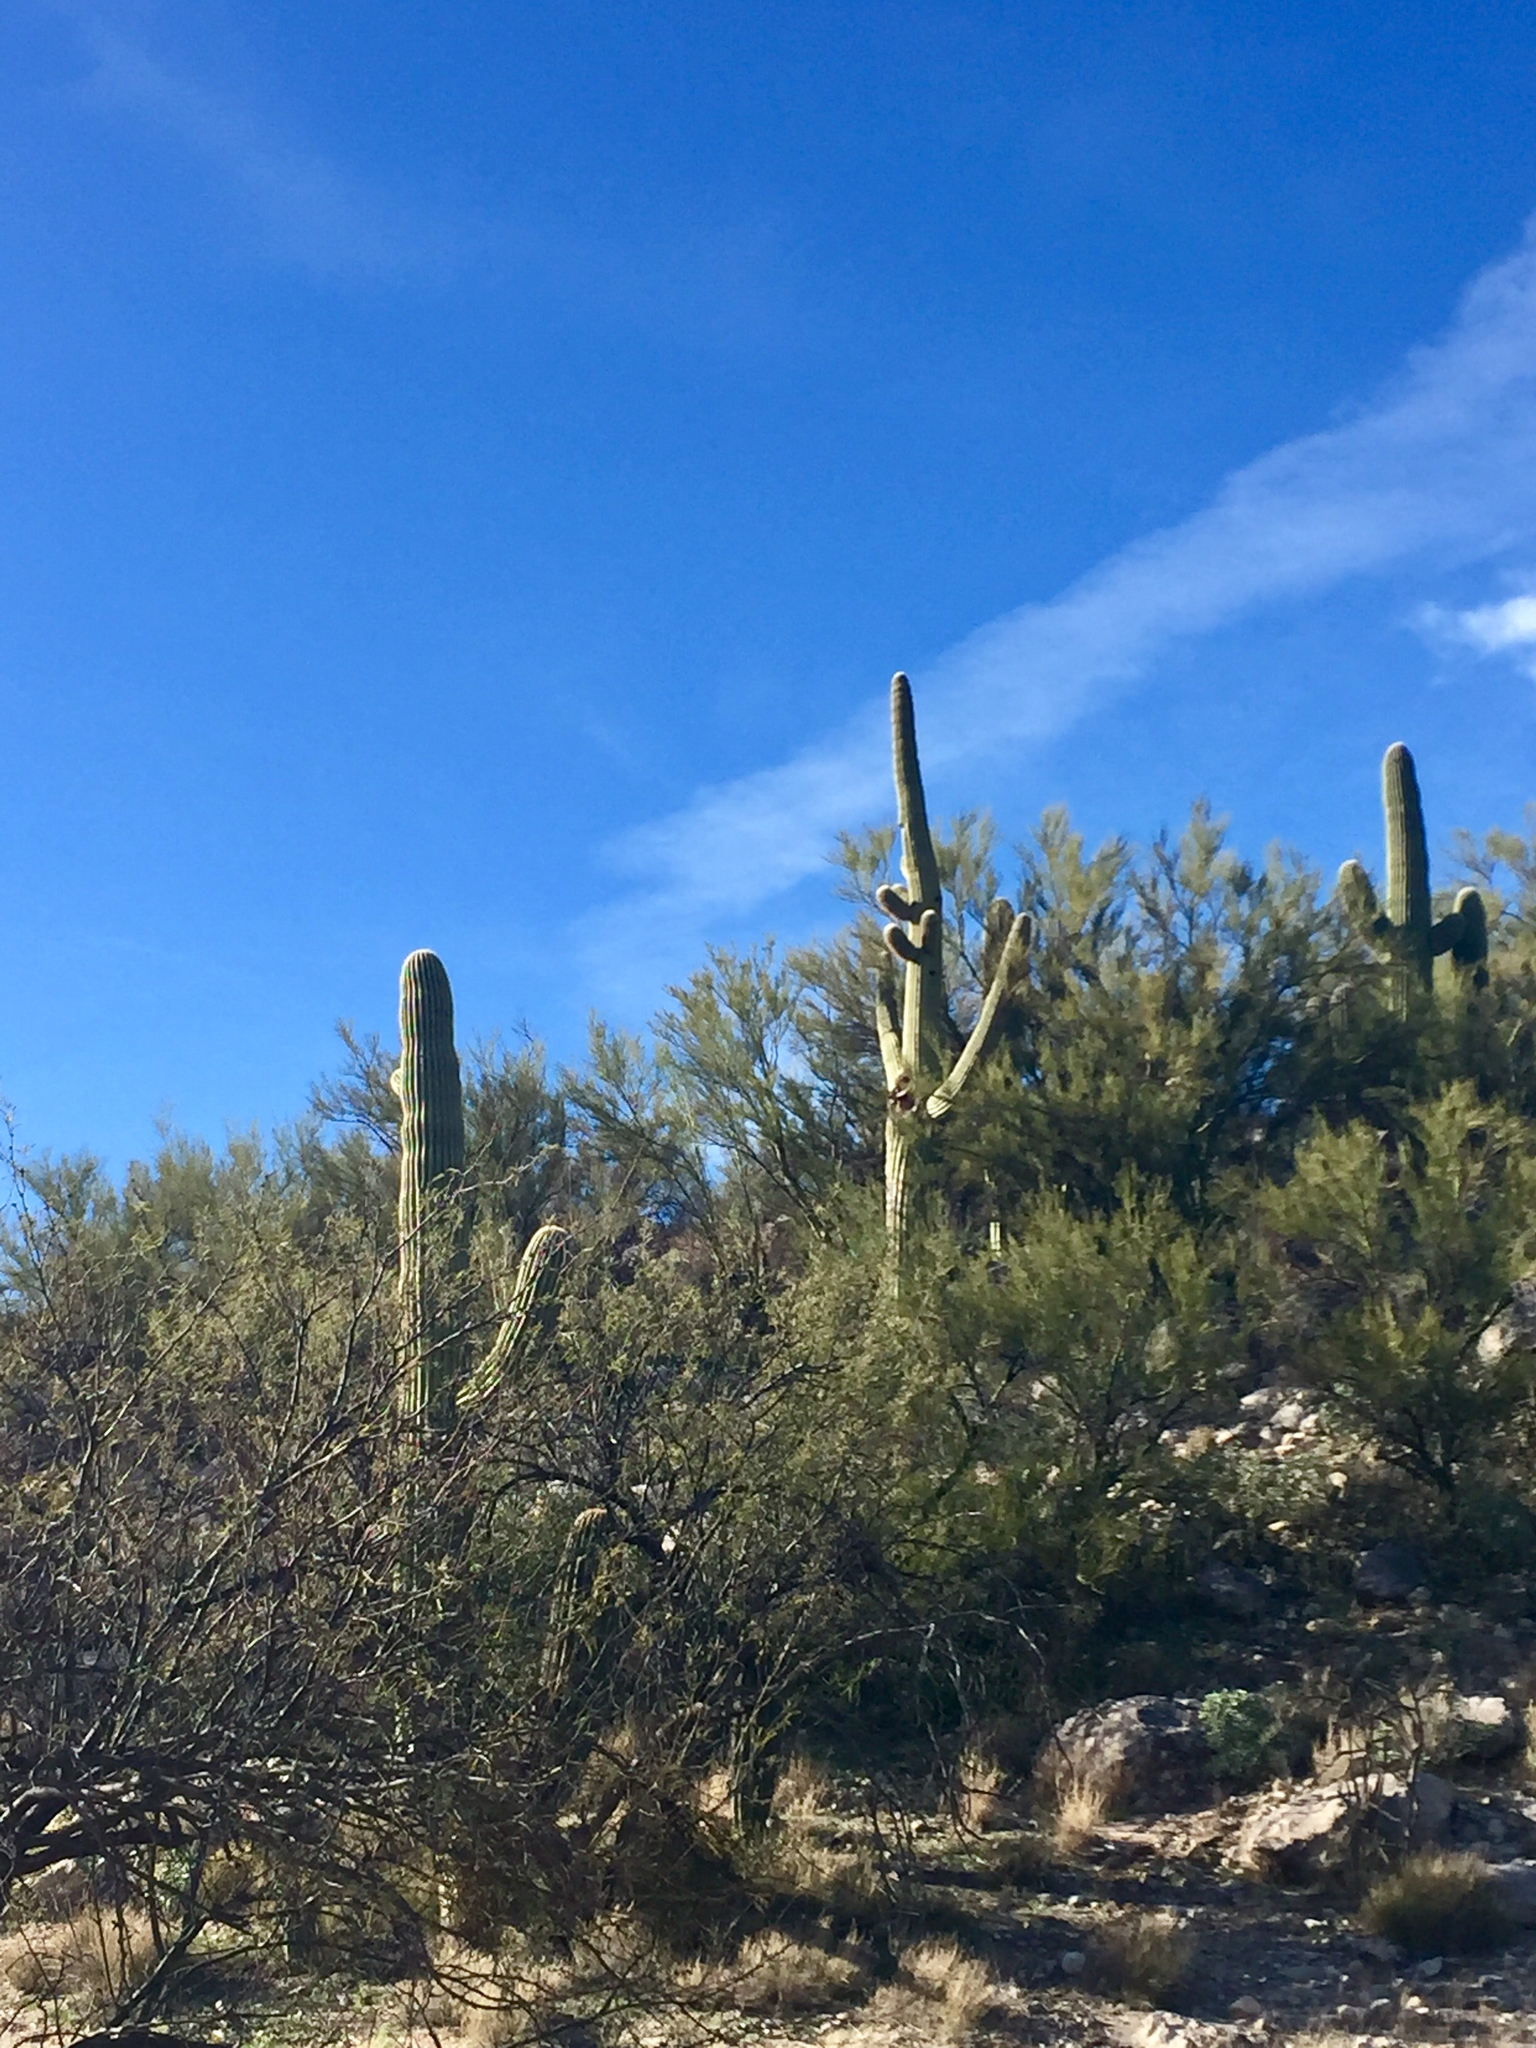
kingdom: Plantae
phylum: Tracheophyta
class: Magnoliopsida
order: Caryophyllales
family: Cactaceae
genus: Carnegiea
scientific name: Carnegiea gigantea
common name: Saguaro
